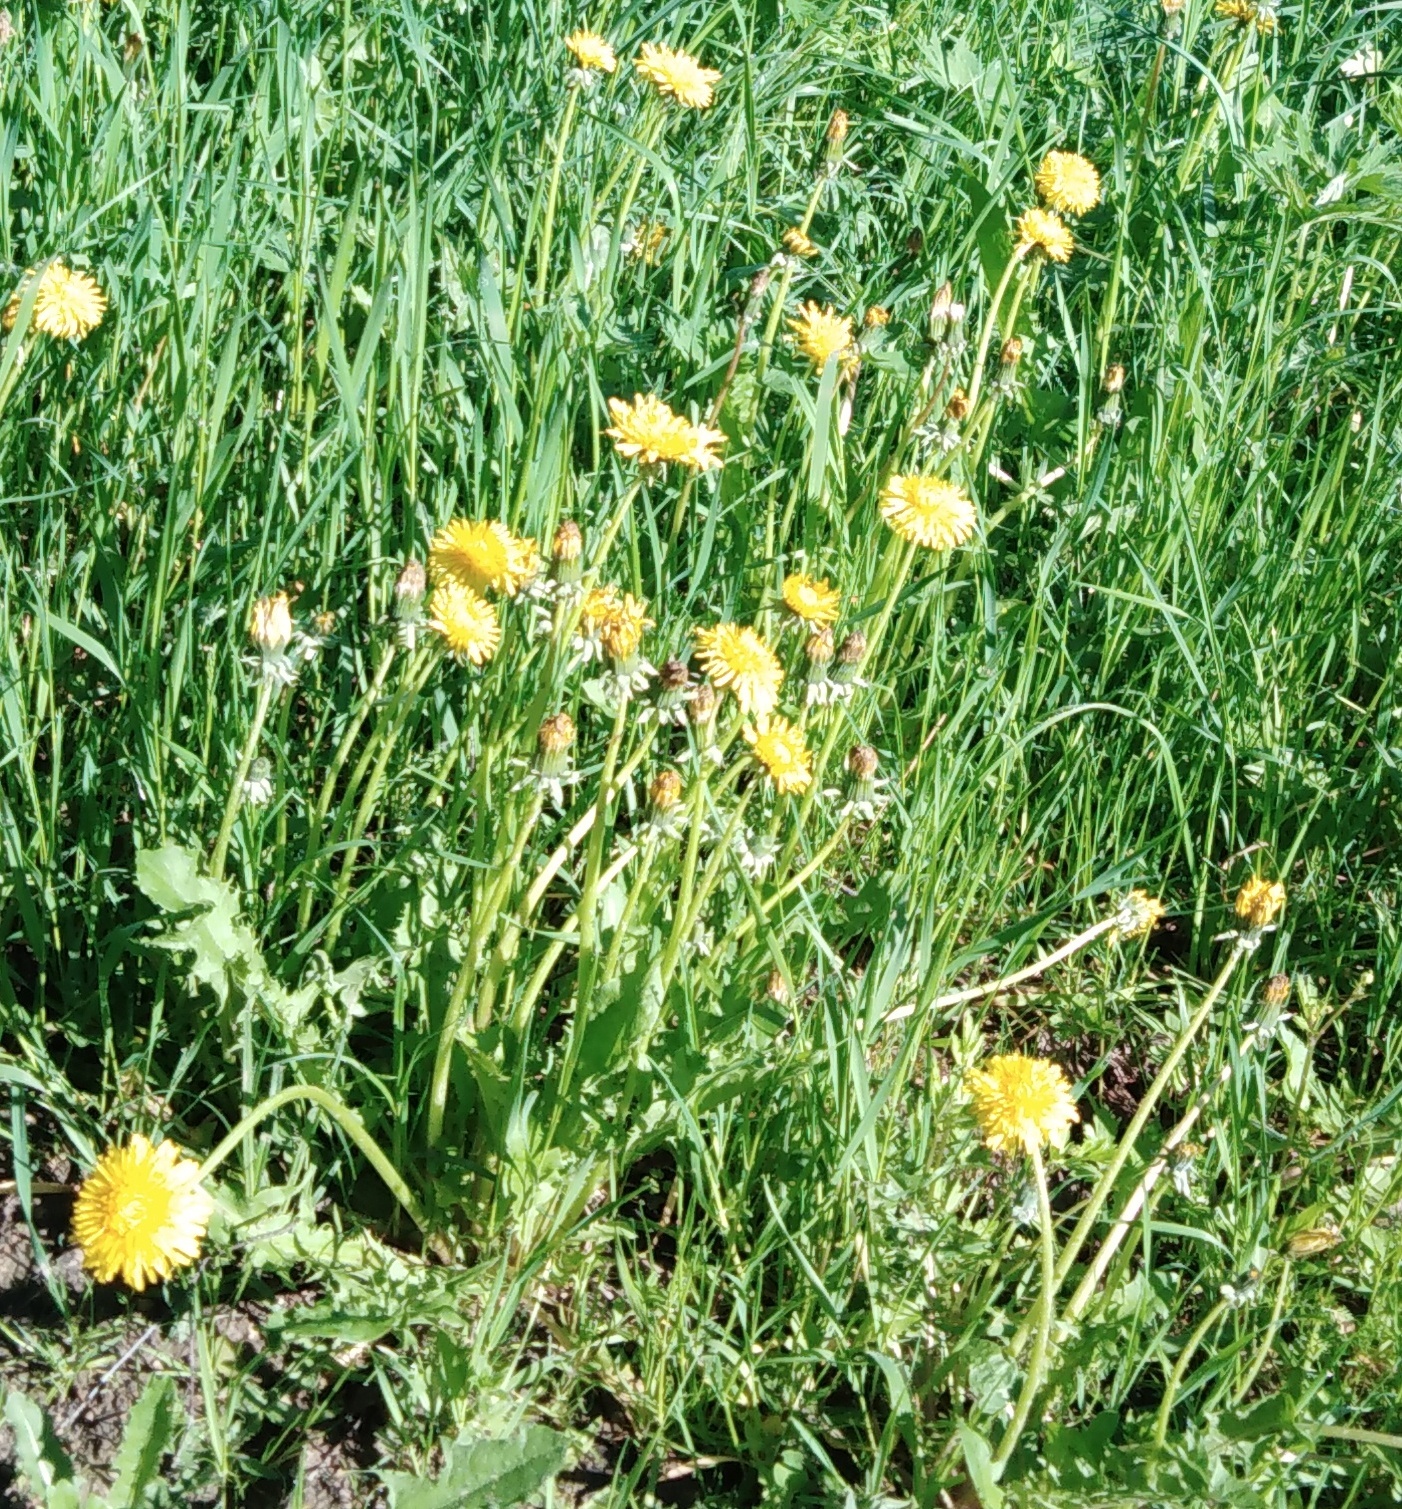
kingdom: Plantae
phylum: Tracheophyta
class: Magnoliopsida
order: Asterales
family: Asteraceae
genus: Taraxacum
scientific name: Taraxacum officinale
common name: Common dandelion
